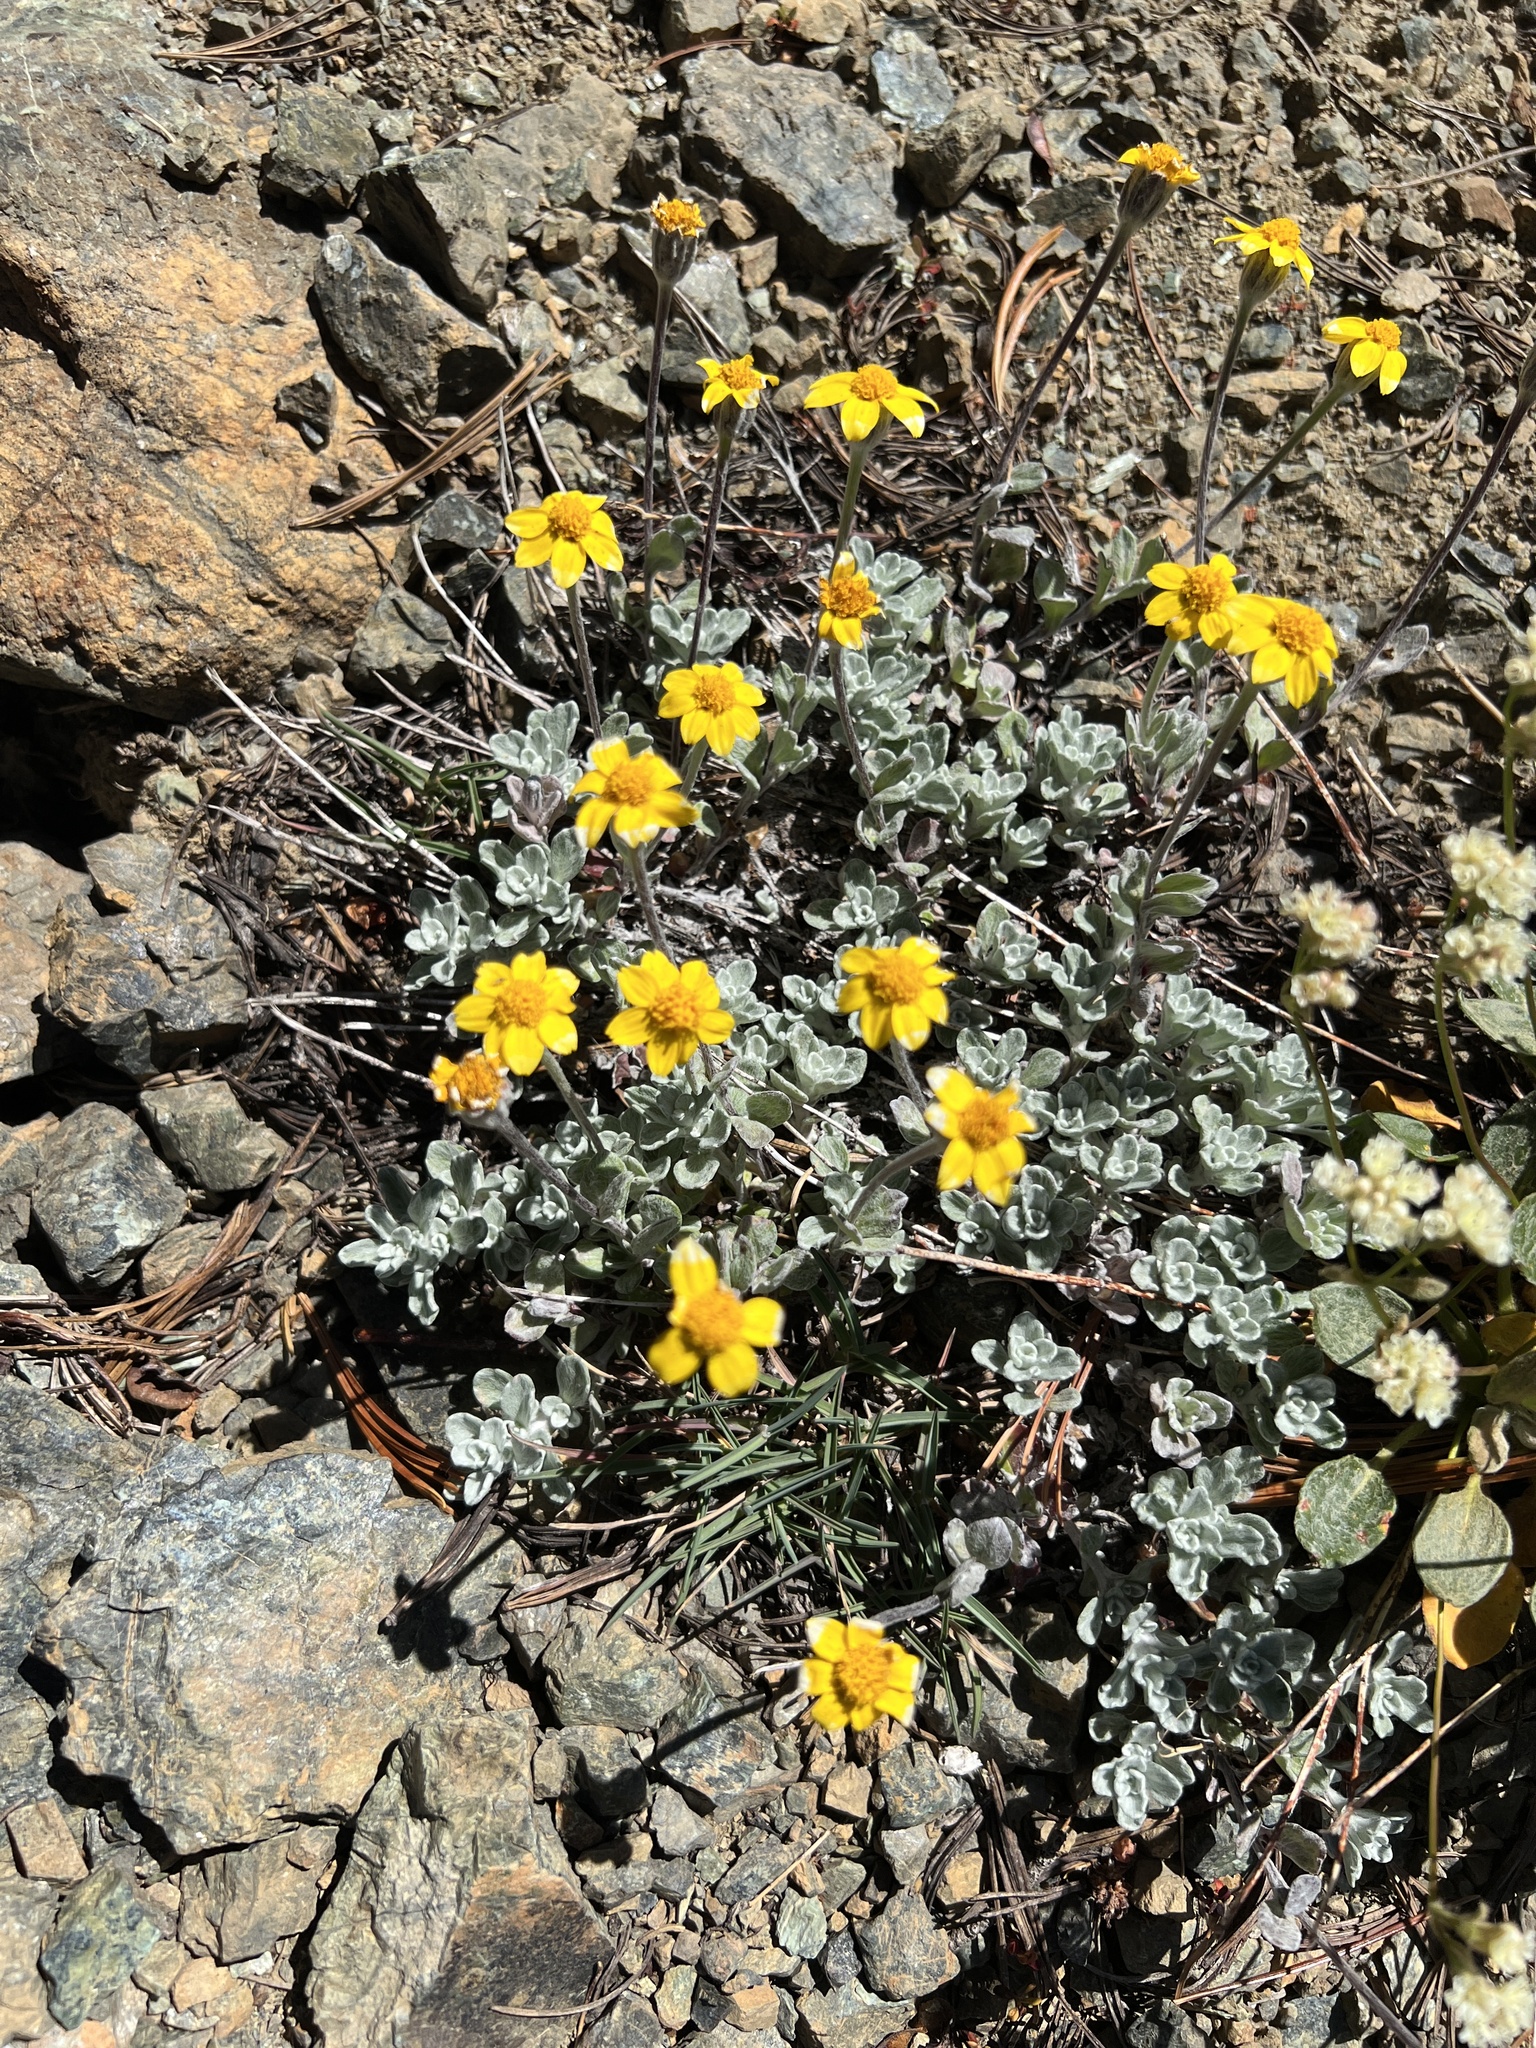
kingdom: Plantae
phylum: Tracheophyta
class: Magnoliopsida
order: Asterales
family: Asteraceae
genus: Eriophyllum
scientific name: Eriophyllum lanatum
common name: Common woolly-sunflower
